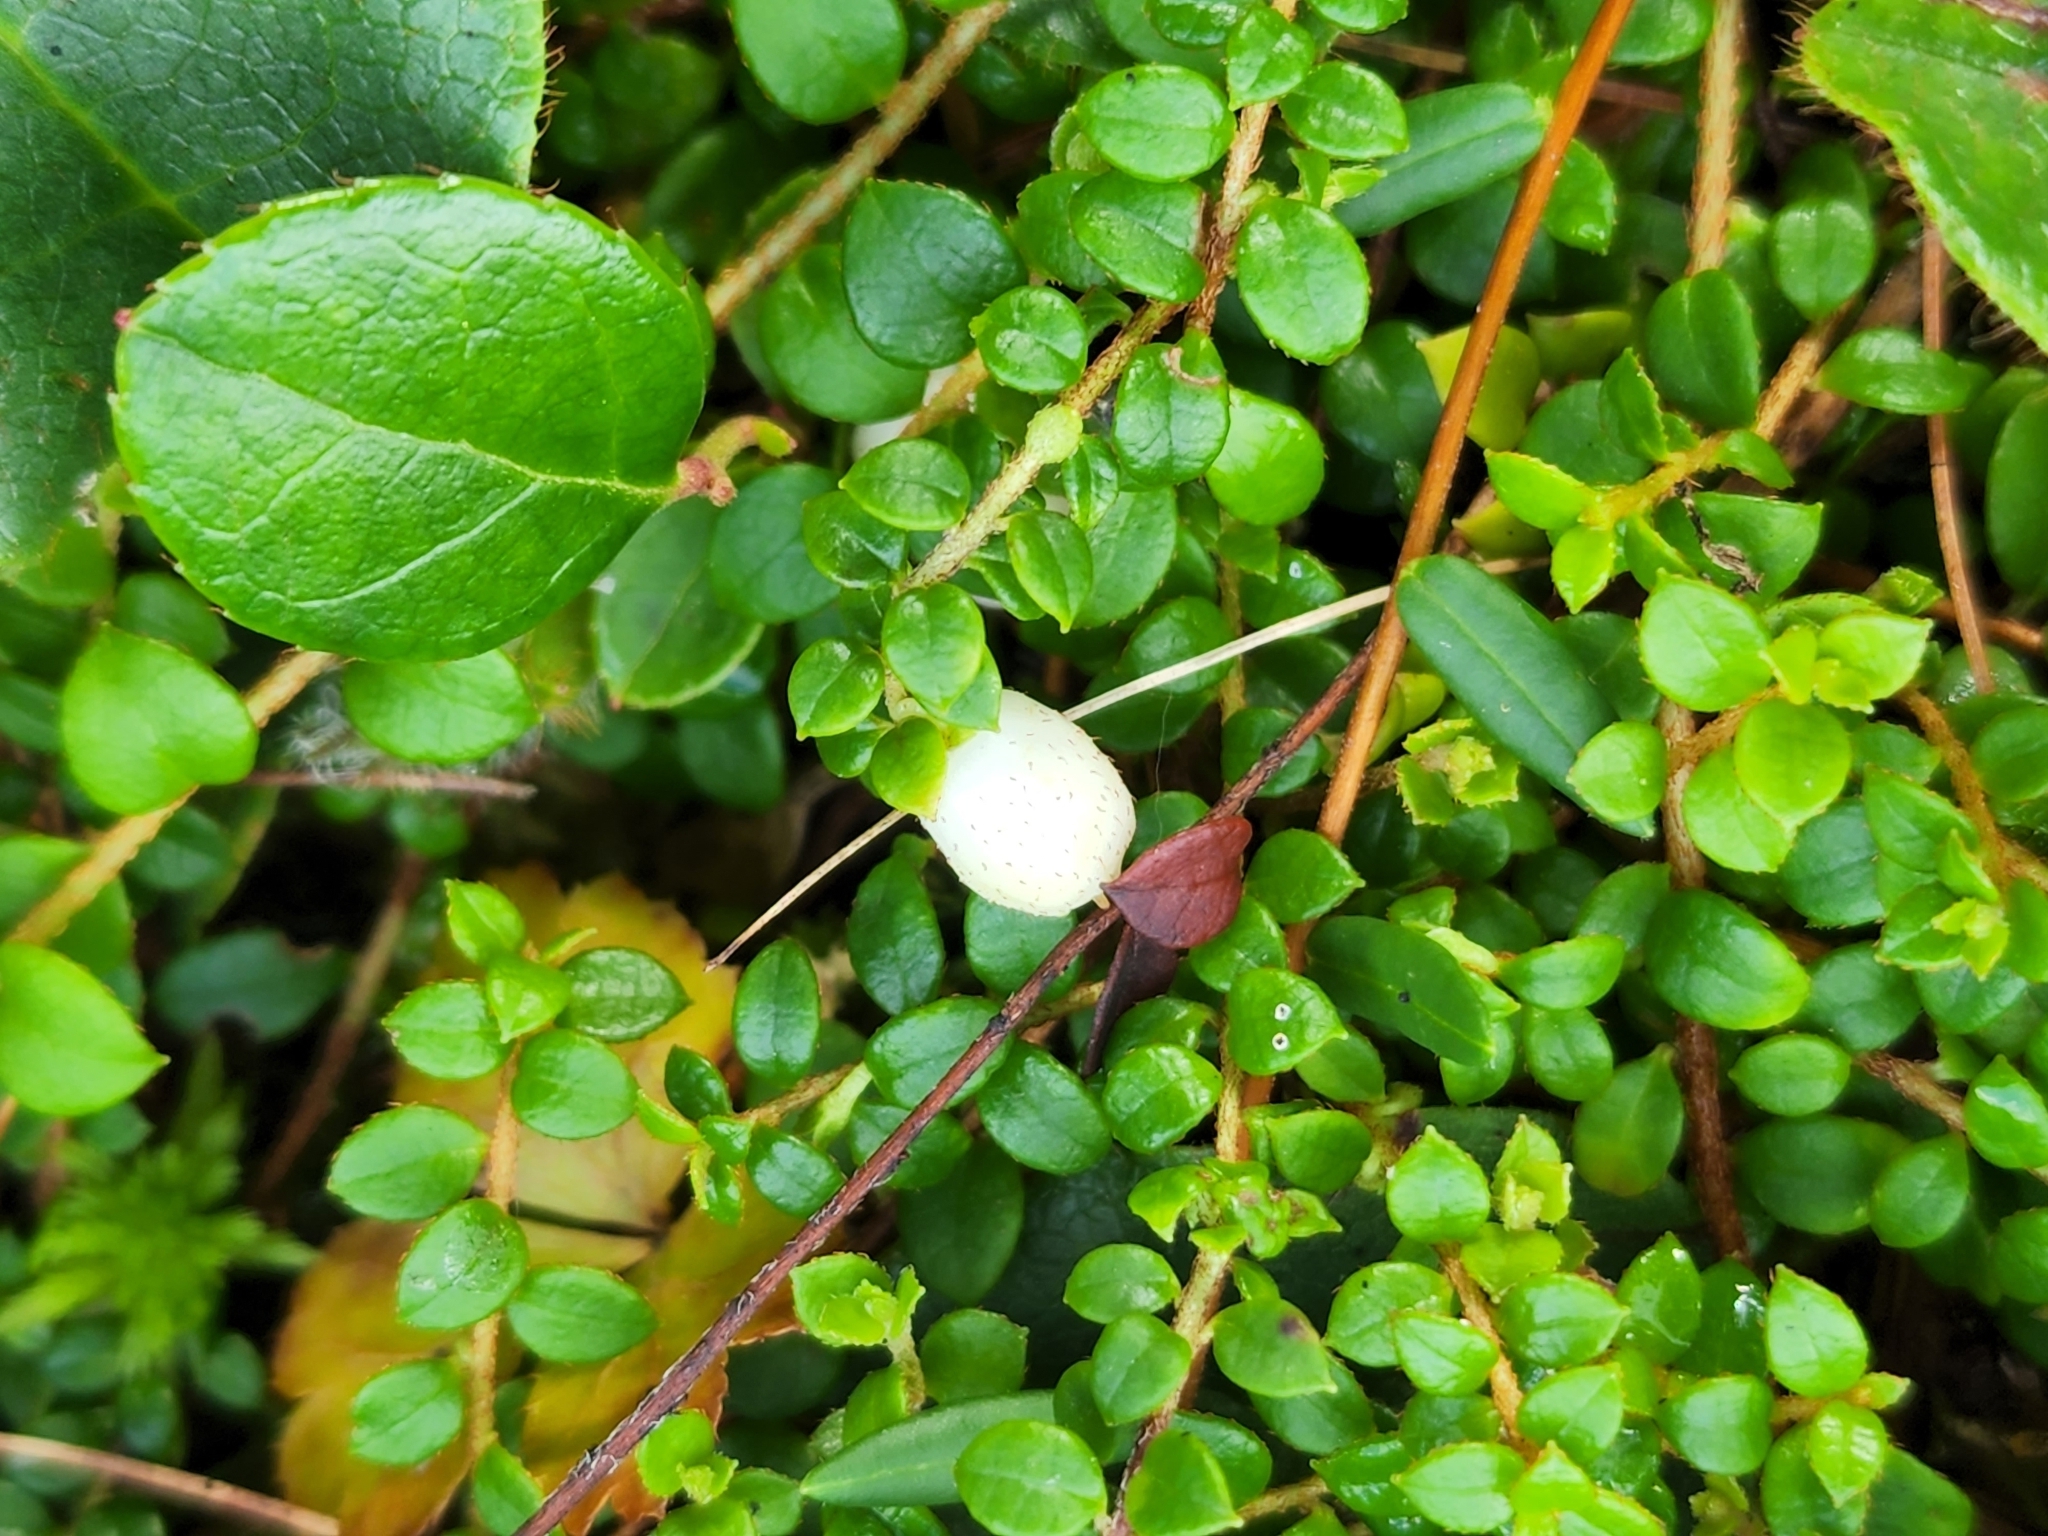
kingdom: Plantae
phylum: Tracheophyta
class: Magnoliopsida
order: Ericales
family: Ericaceae
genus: Gaultheria
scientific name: Gaultheria hispidula
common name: Cancer wintergreen
